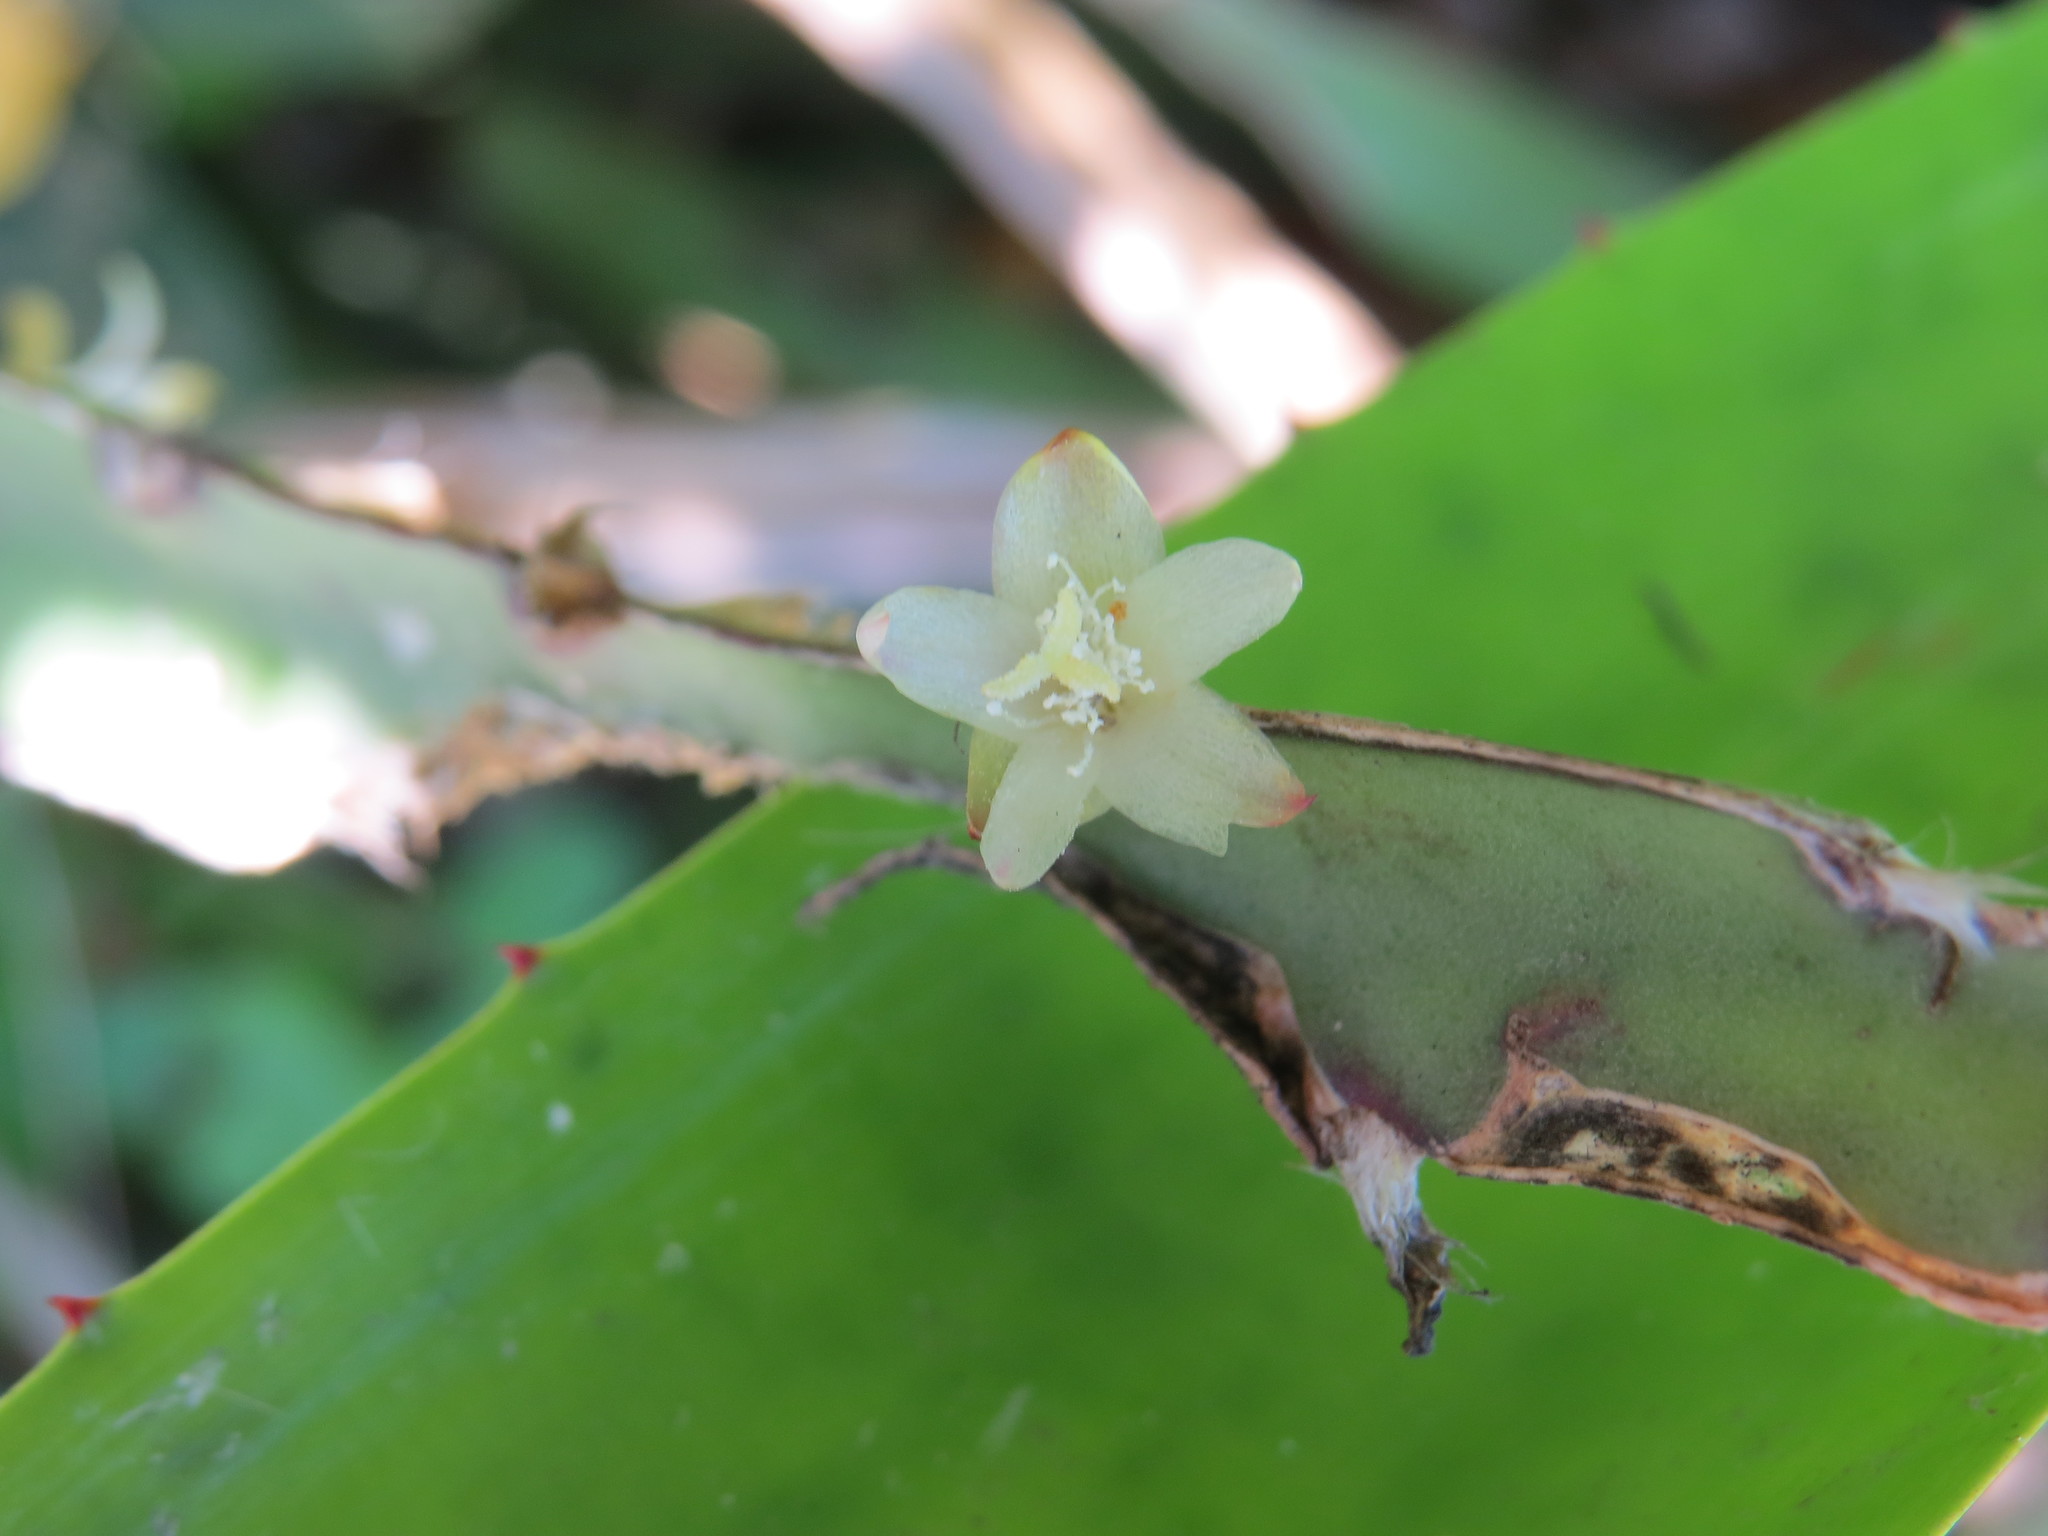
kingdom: Plantae
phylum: Tracheophyta
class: Magnoliopsida
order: Caryophyllales
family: Cactaceae
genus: Lepismium
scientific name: Lepismium cruciforme
